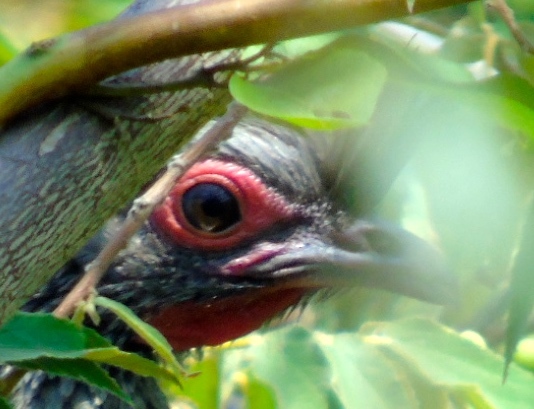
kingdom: Animalia
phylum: Chordata
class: Aves
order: Galliformes
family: Cracidae
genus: Ortalis
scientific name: Ortalis wagleri
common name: Rufous-bellied chachalaca
